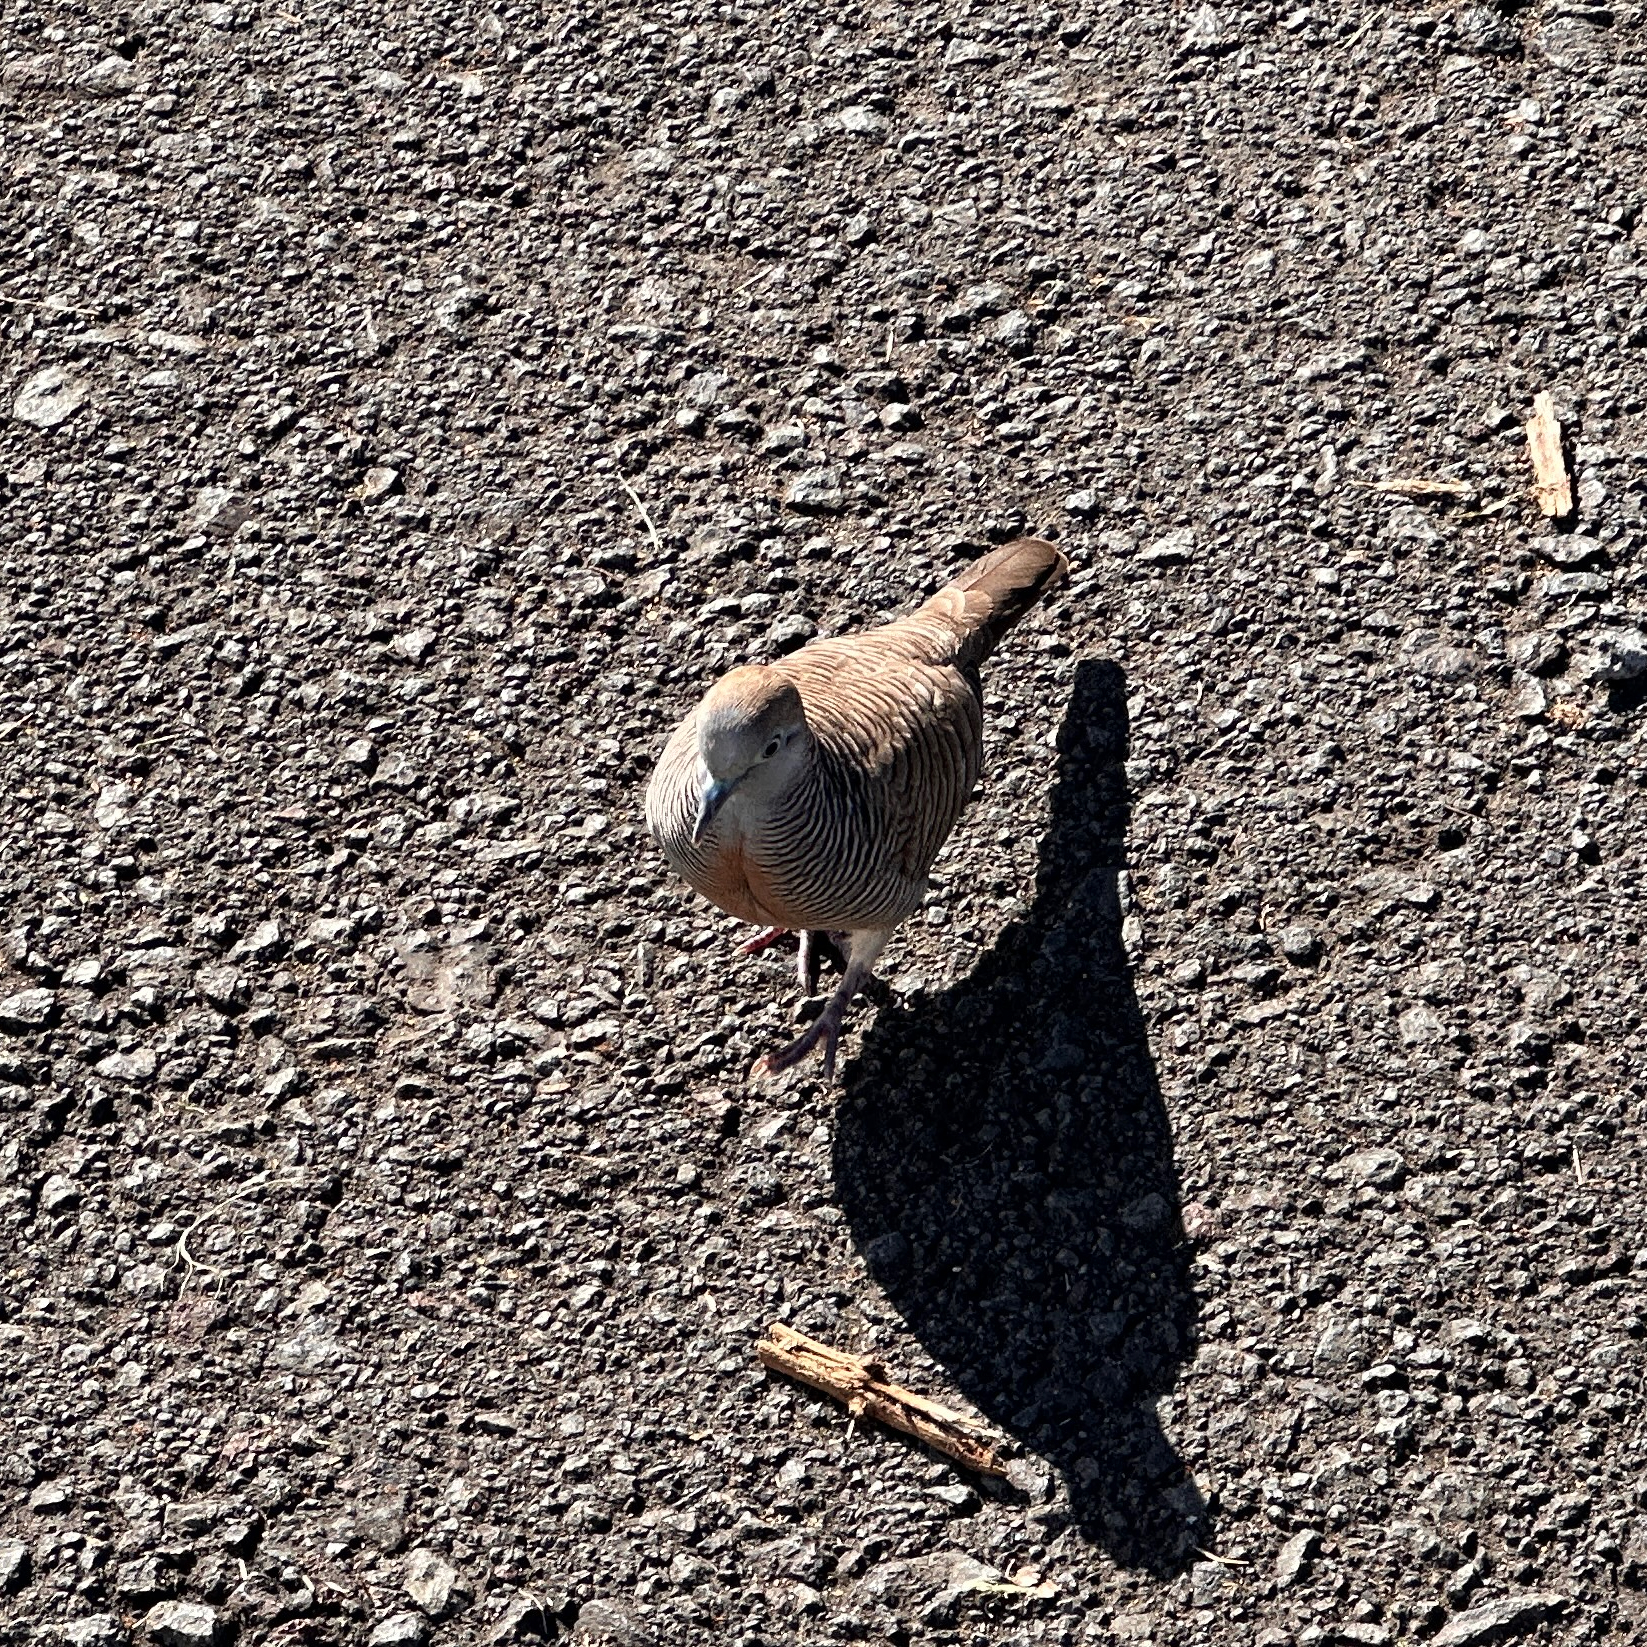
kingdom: Animalia
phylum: Chordata
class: Aves
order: Columbiformes
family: Columbidae
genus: Geopelia
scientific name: Geopelia striata
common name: Zebra dove
